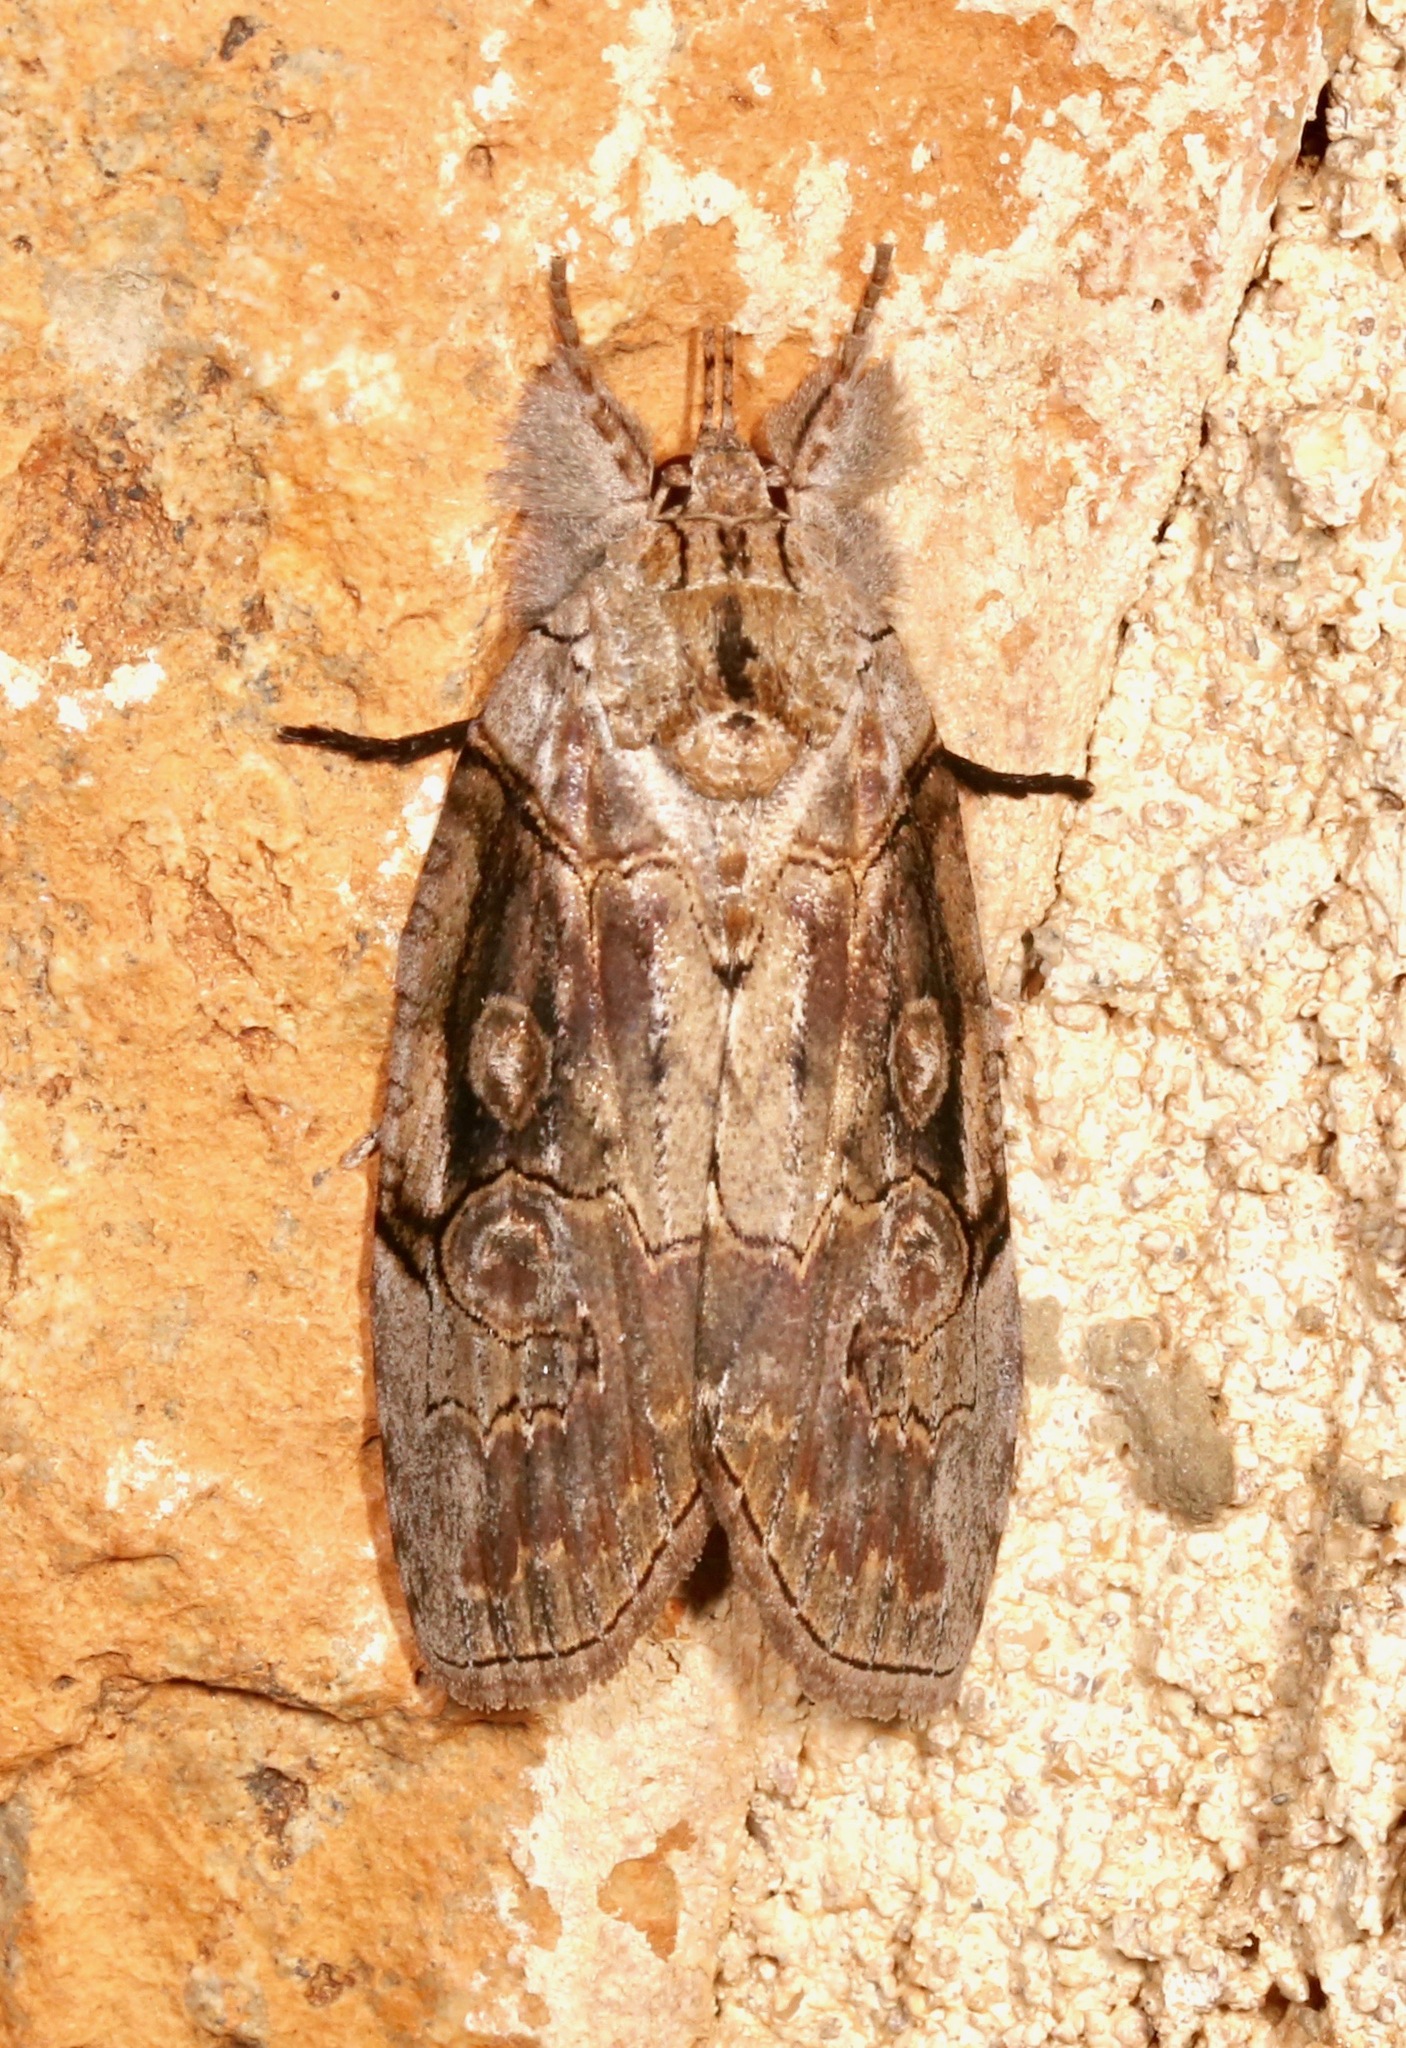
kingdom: Animalia
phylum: Arthropoda
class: Insecta
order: Lepidoptera
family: Nolidae
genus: Iscadia
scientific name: Iscadia aperta
